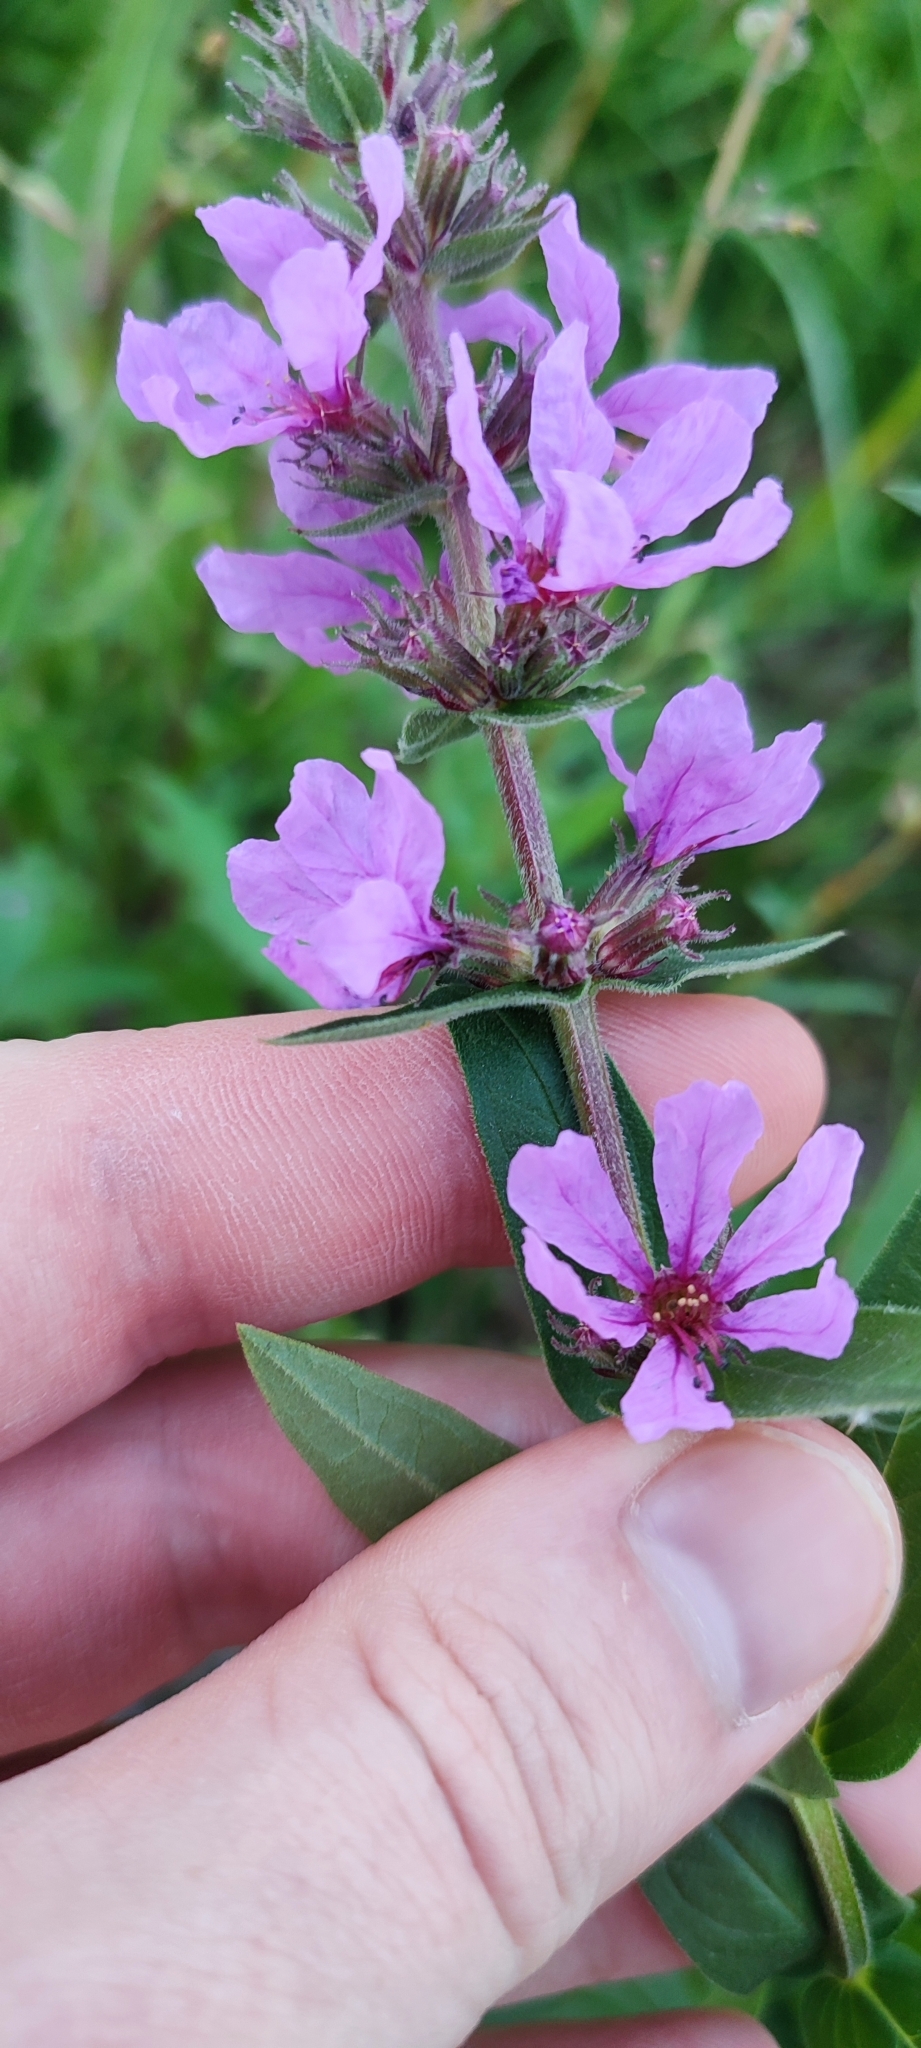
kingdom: Plantae
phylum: Tracheophyta
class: Magnoliopsida
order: Myrtales
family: Lythraceae
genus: Lythrum
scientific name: Lythrum salicaria
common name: Purple loosestrife
